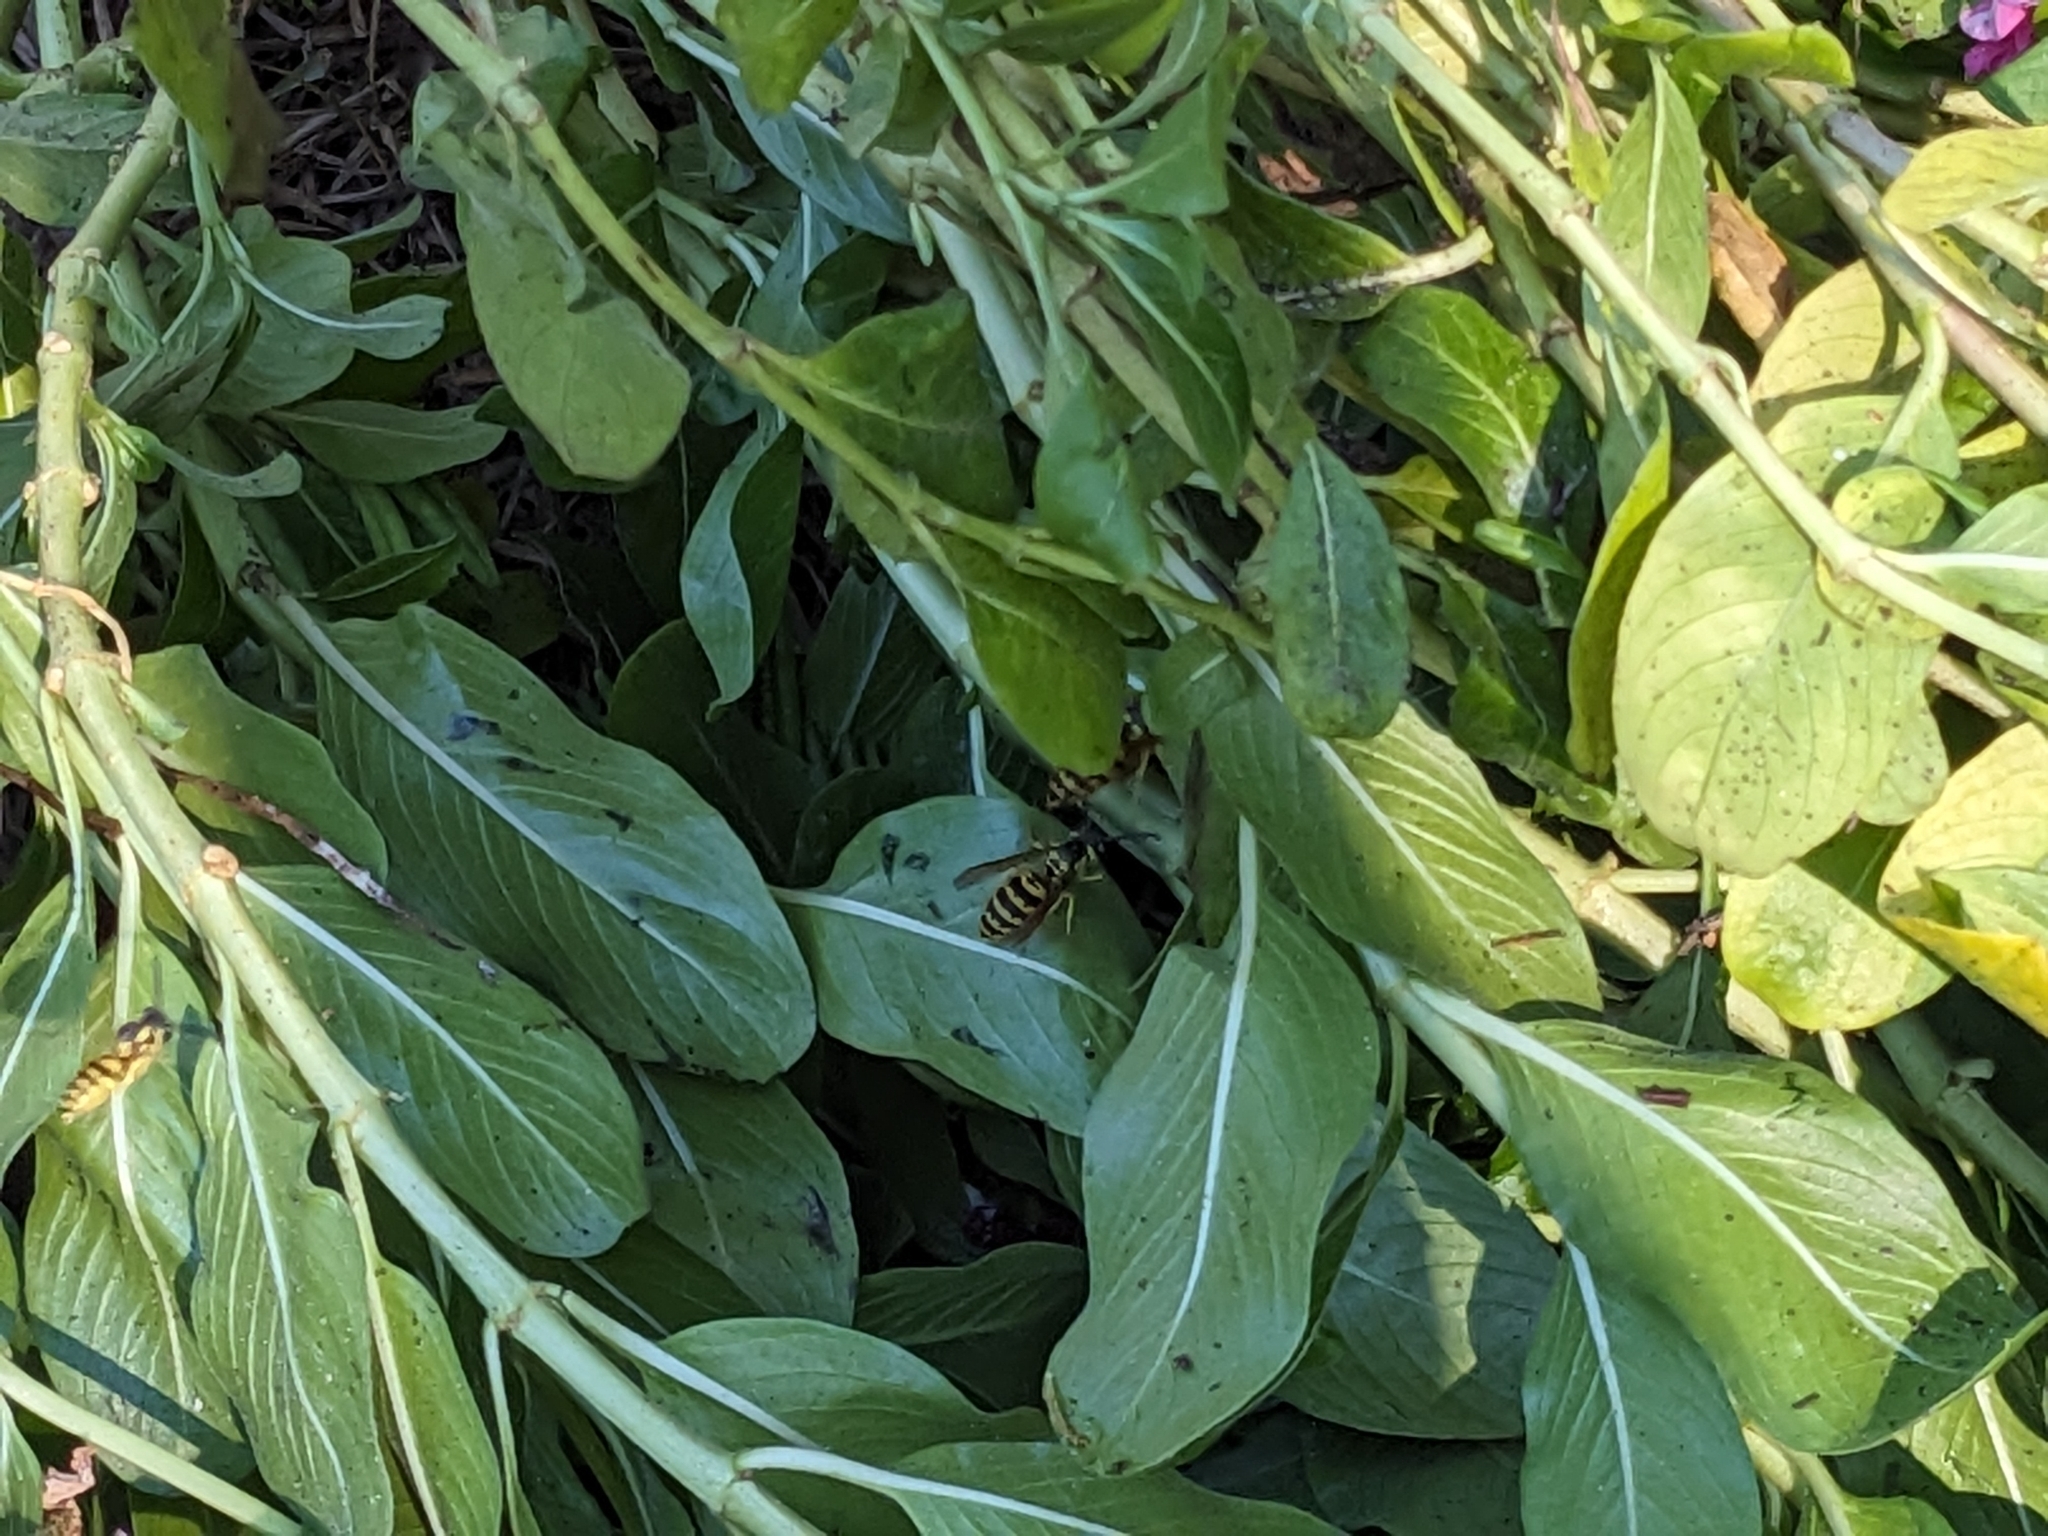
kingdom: Animalia
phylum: Arthropoda
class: Insecta
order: Hymenoptera
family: Vespidae
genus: Vespula
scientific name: Vespula maculifrons
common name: Eastern yellowjacket
